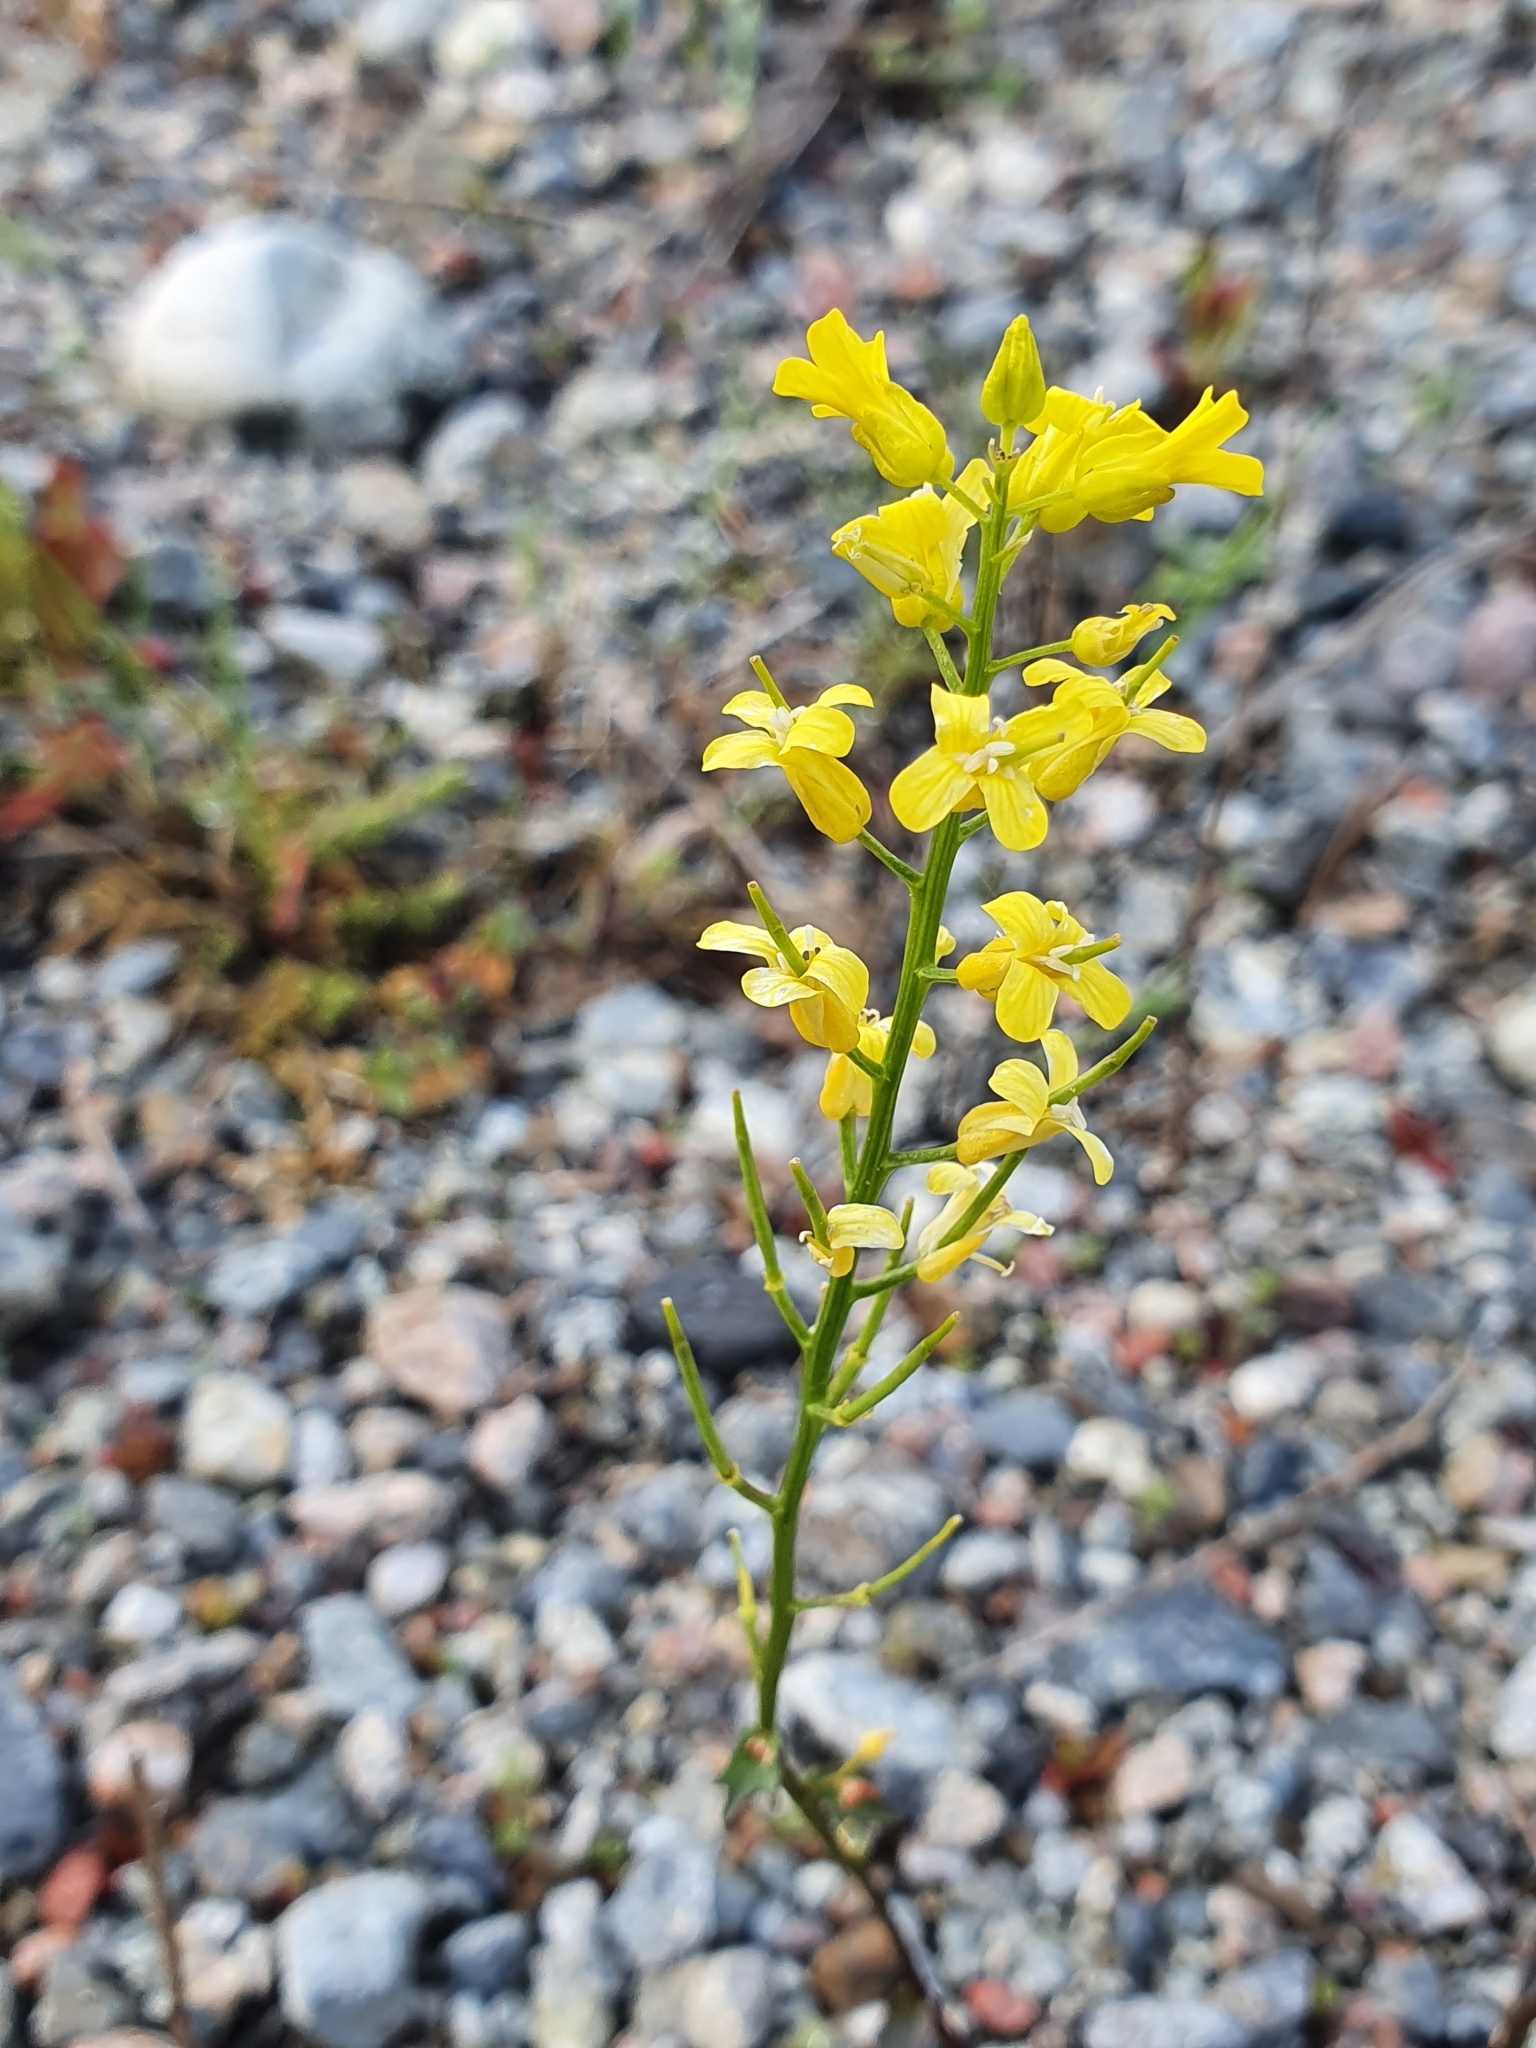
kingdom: Plantae
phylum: Tracheophyta
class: Magnoliopsida
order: Brassicales
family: Brassicaceae
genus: Barbarea
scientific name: Barbarea vulgaris
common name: Cressy-greens
